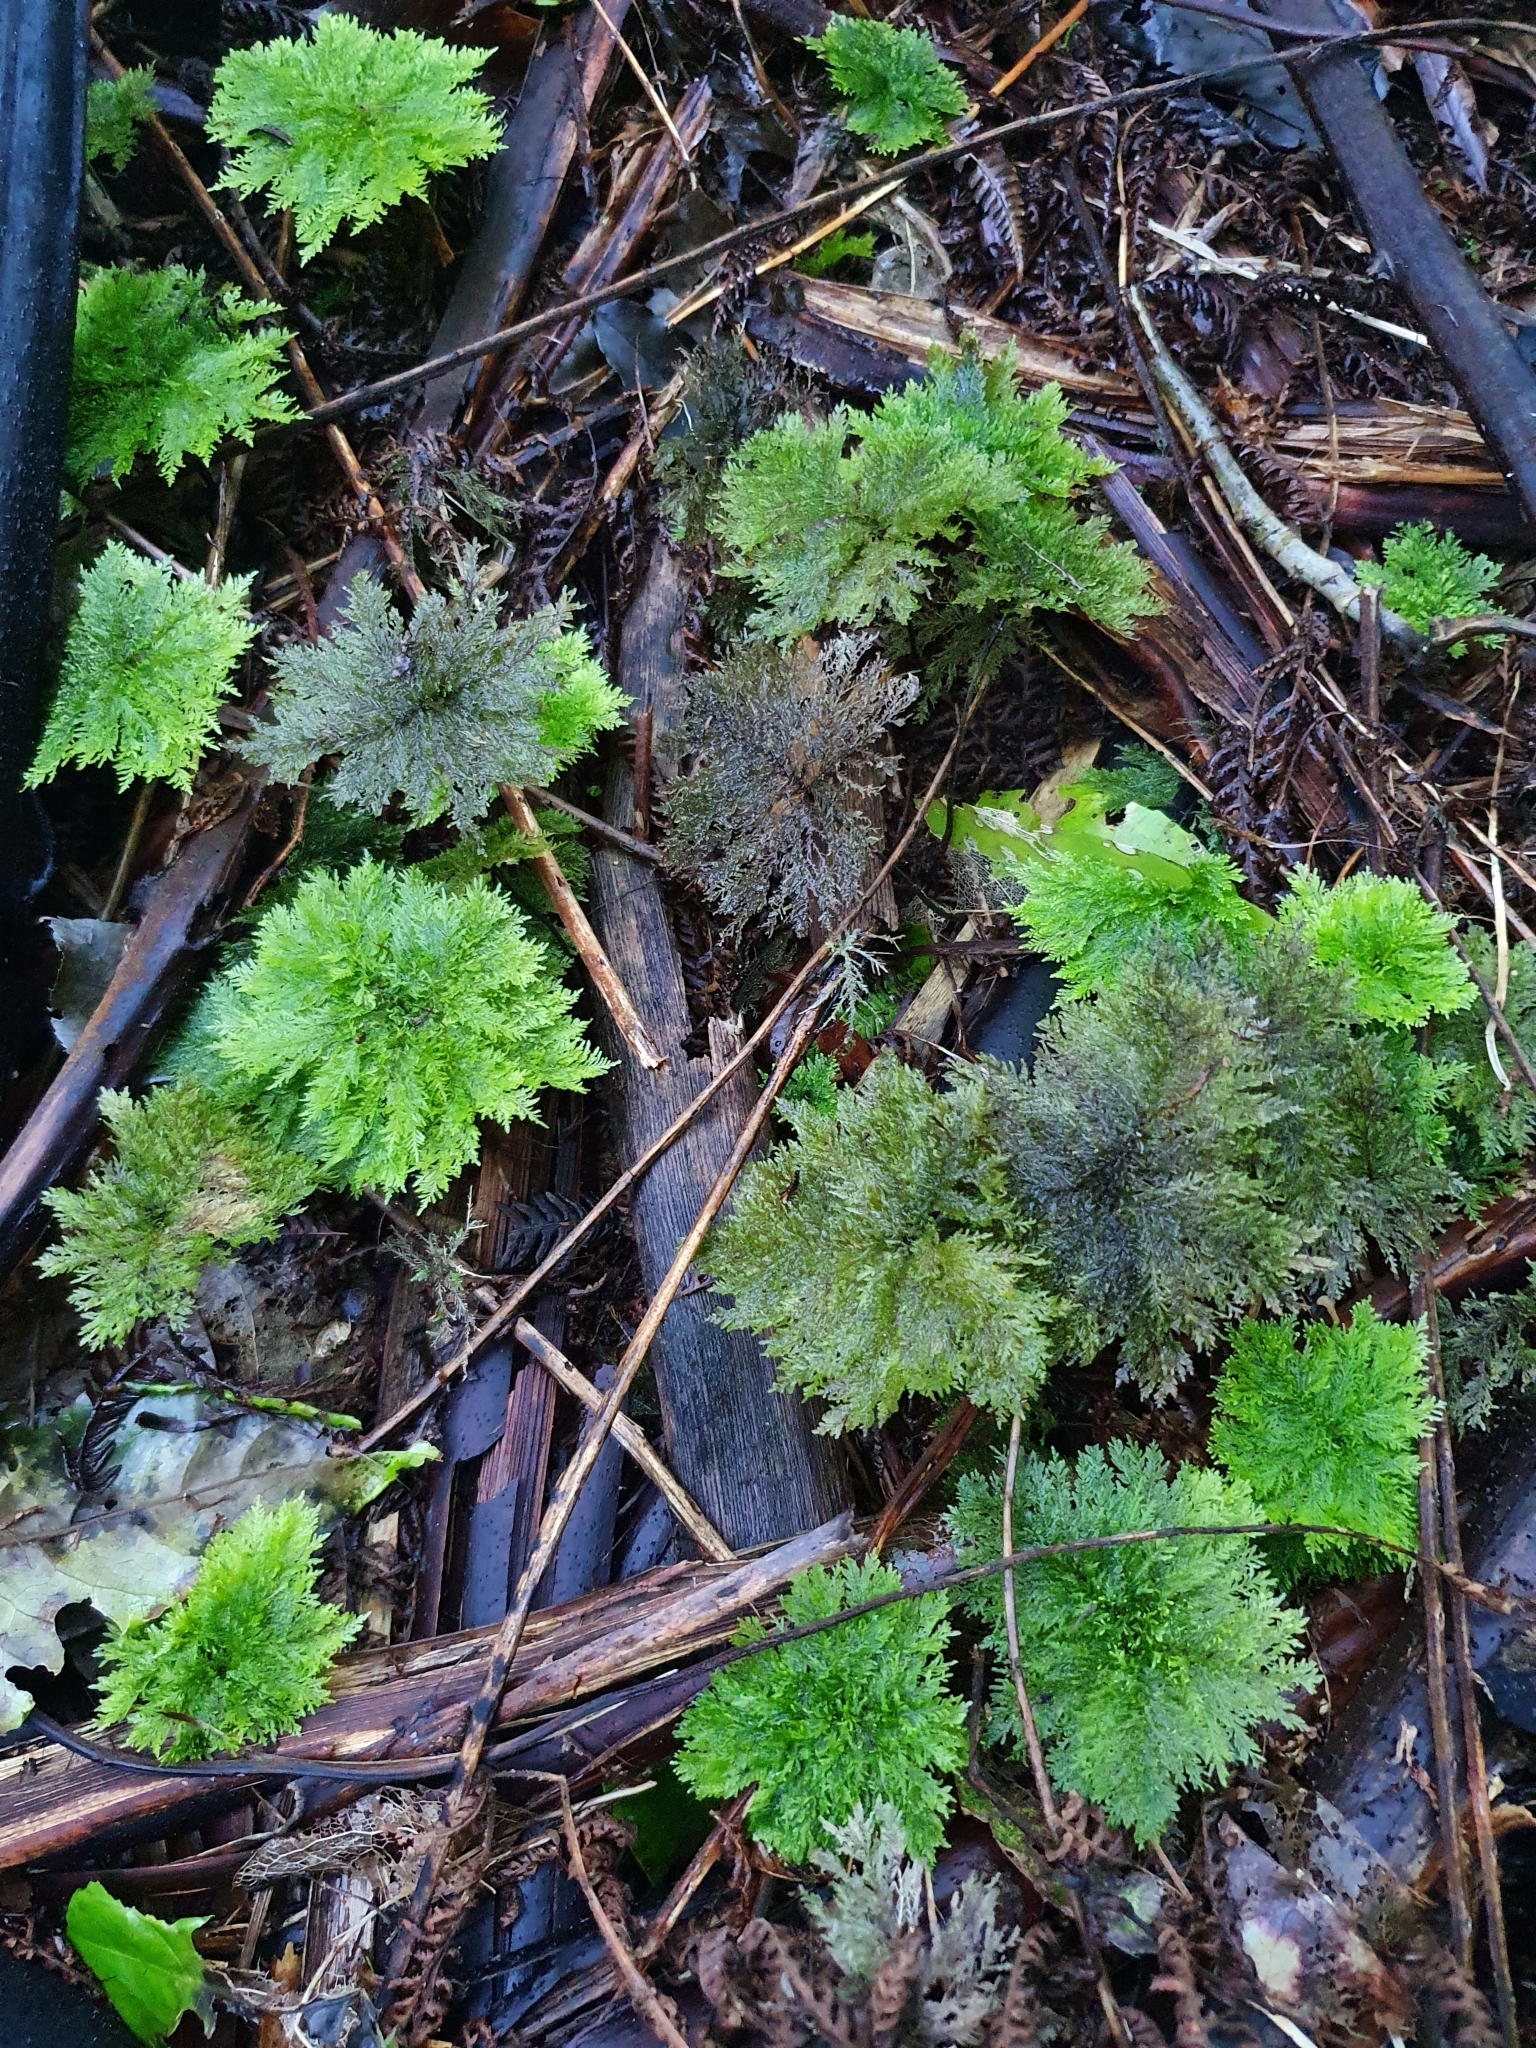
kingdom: Plantae
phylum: Bryophyta
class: Bryopsida
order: Hypopterygiales
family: Hypopterygiaceae
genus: Dendrohypopterygium
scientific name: Dendrohypopterygium filiculiforme
